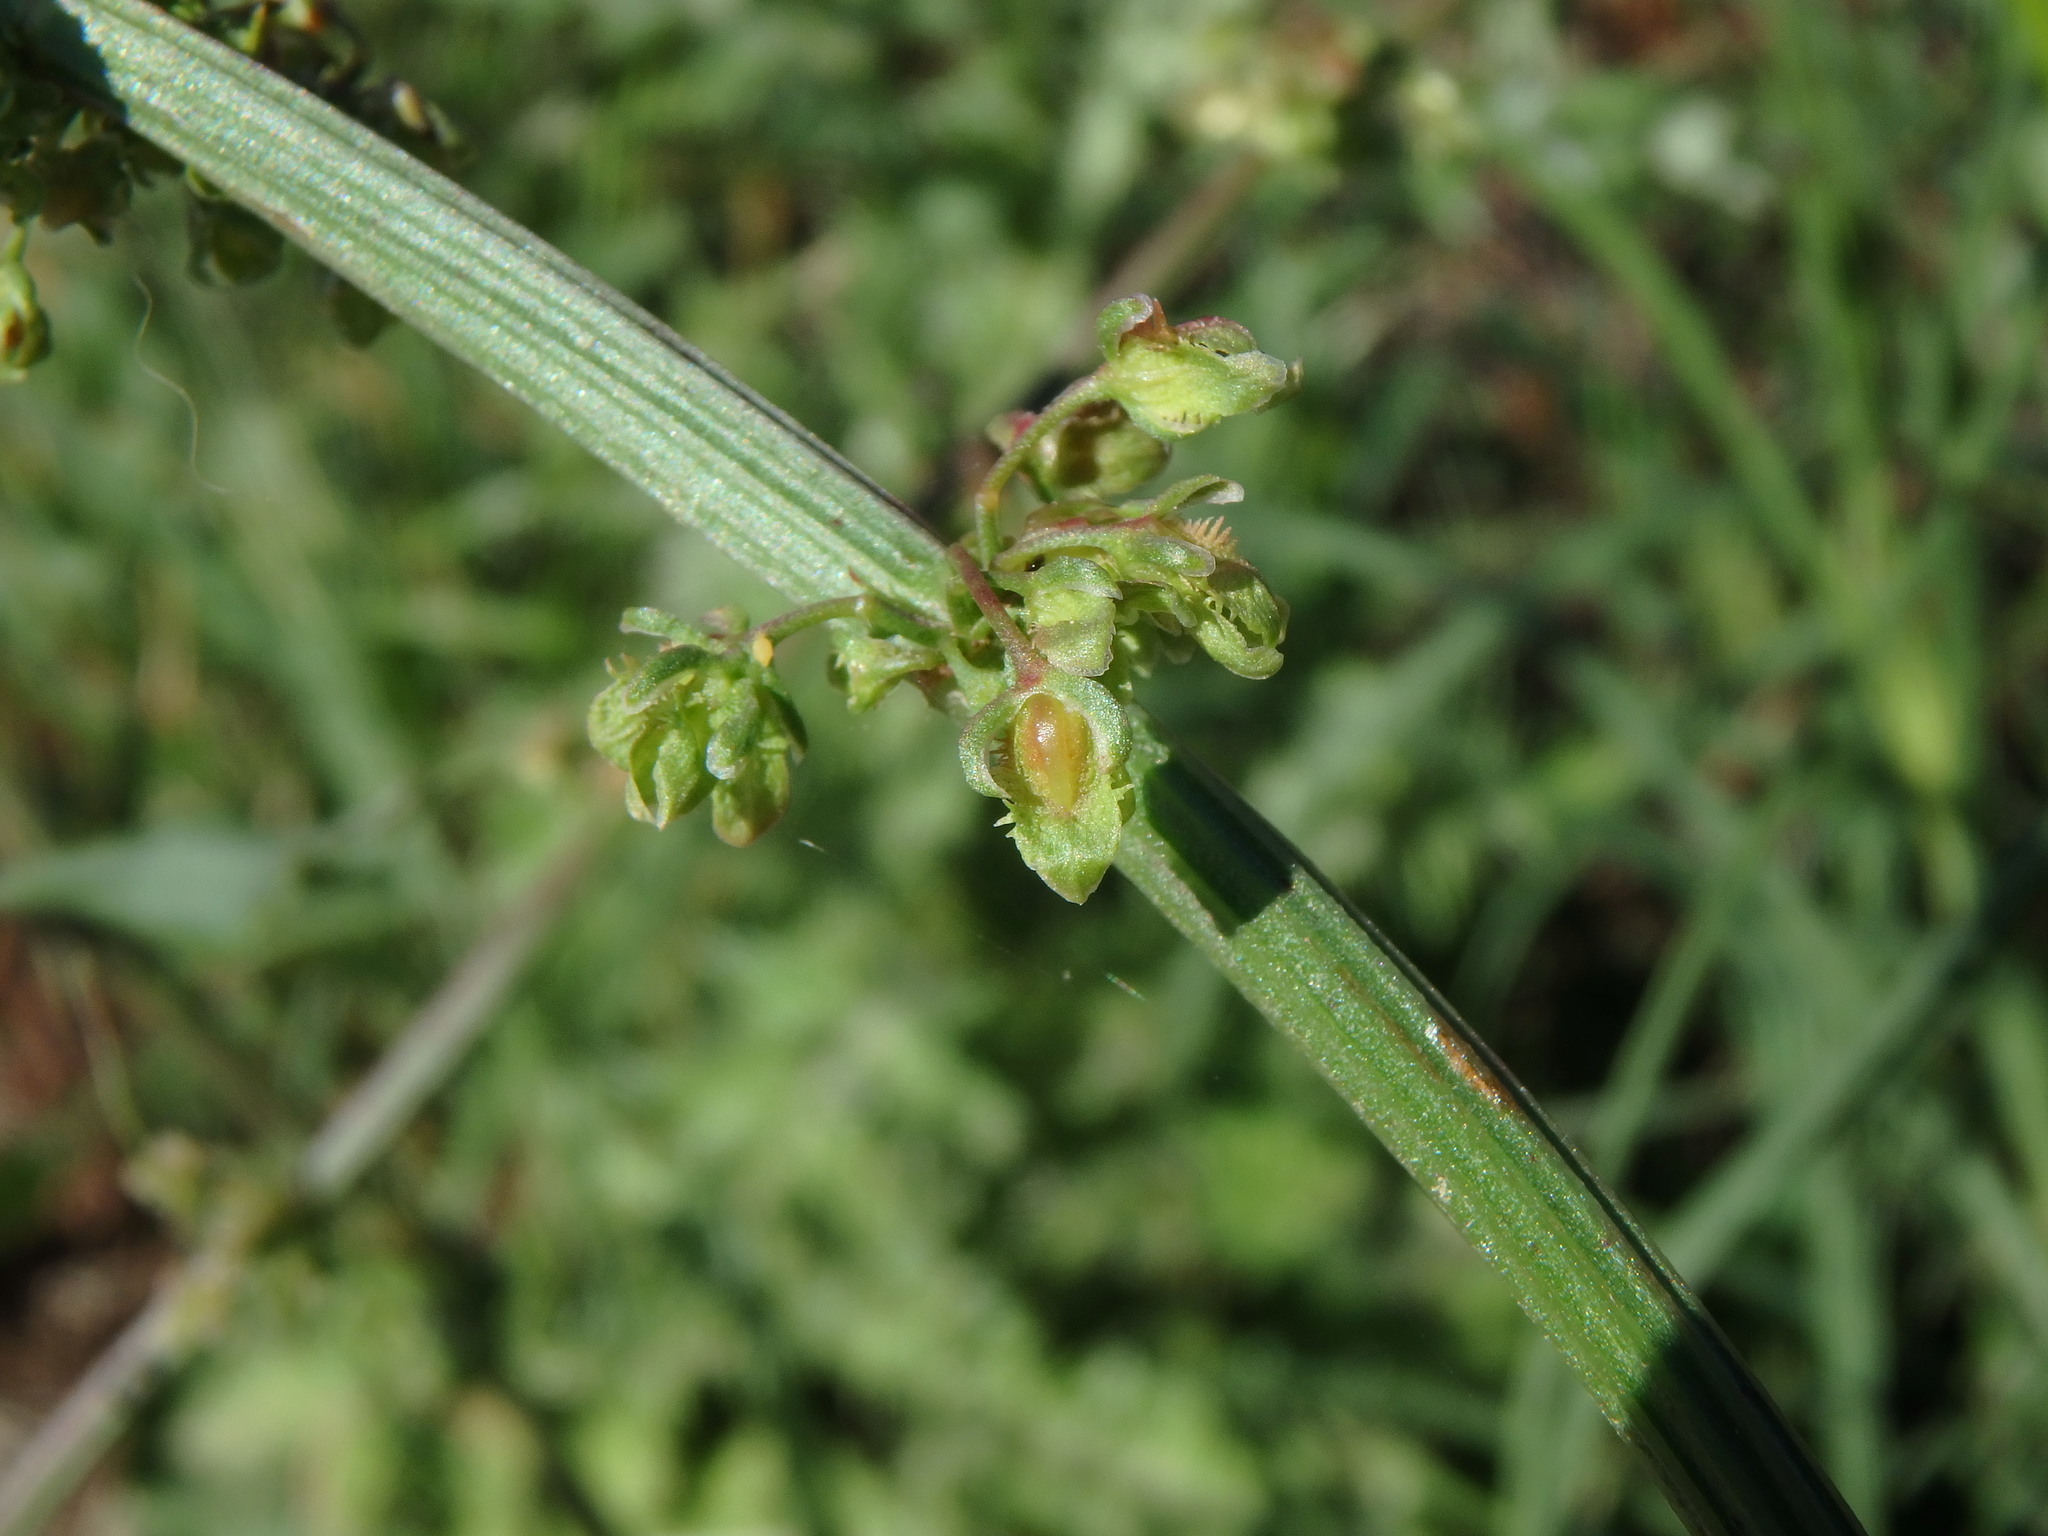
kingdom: Plantae
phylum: Tracheophyta
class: Magnoliopsida
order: Caryophyllales
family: Polygonaceae
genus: Rumex
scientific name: Rumex pulcher
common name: Fiddle dock
